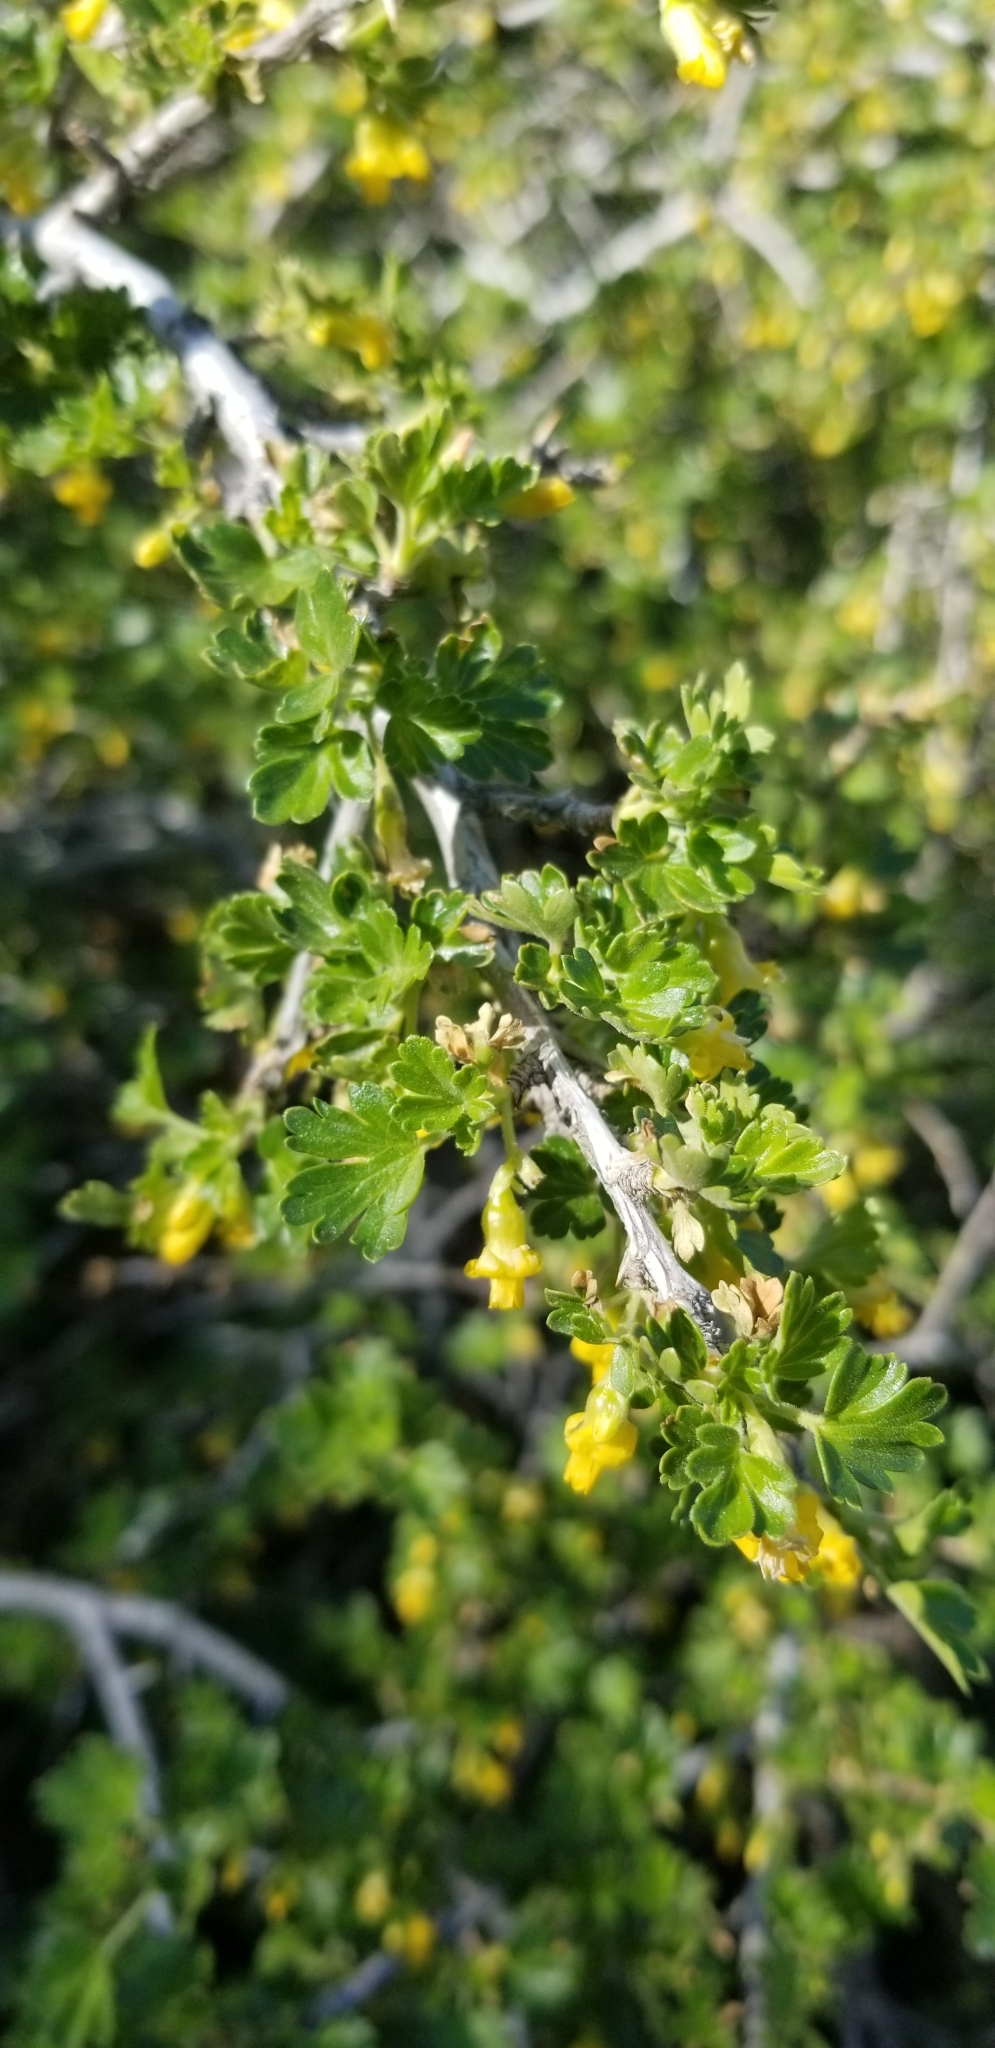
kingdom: Plantae
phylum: Tracheophyta
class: Magnoliopsida
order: Saxifragales
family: Grossulariaceae
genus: Ribes
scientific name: Ribes quercetorum
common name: Oak gooseberry
